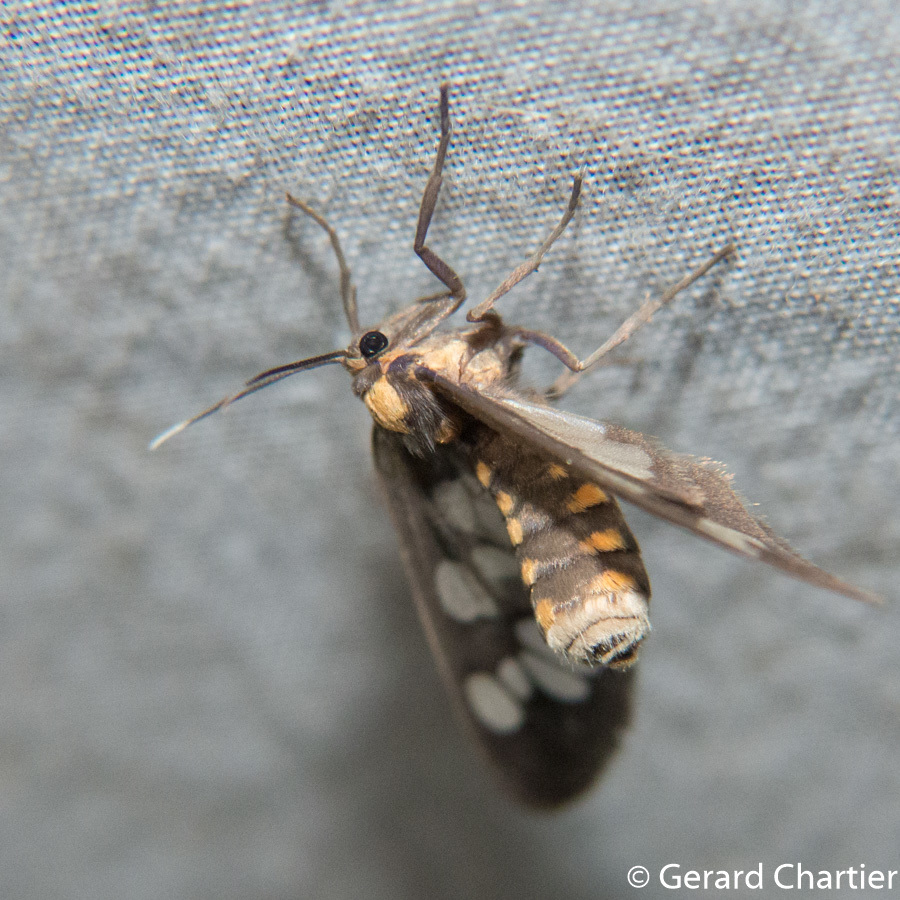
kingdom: Animalia
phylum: Arthropoda
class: Insecta
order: Lepidoptera
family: Erebidae
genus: Eressa
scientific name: Eressa confinis
